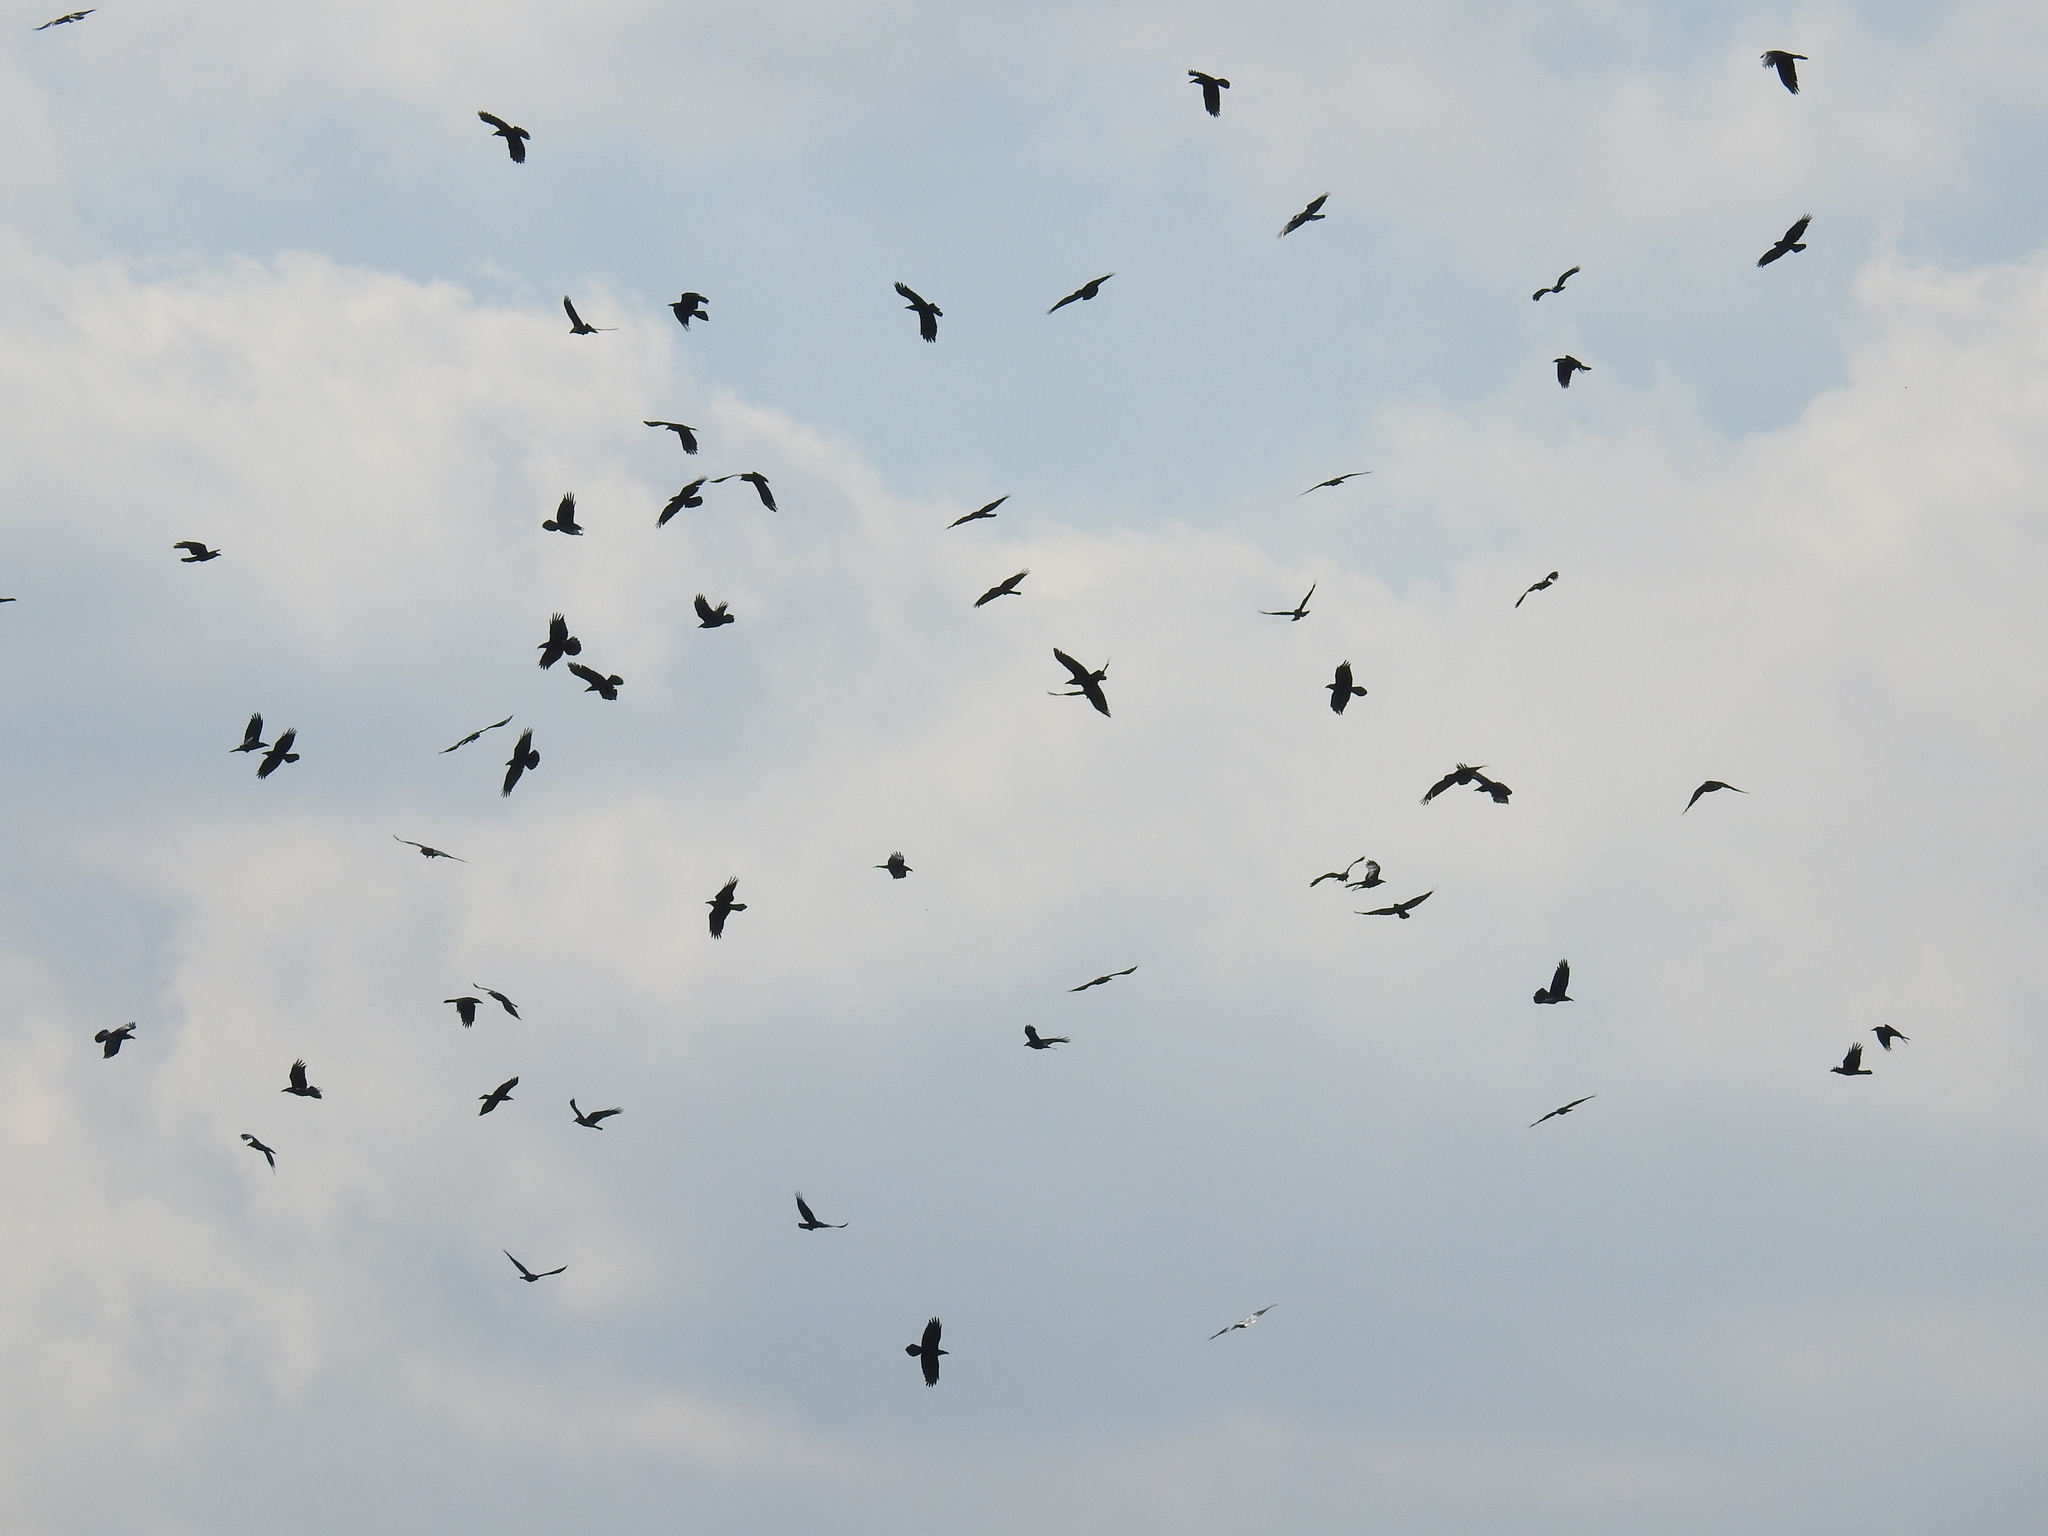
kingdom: Animalia
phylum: Chordata
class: Aves
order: Passeriformes
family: Corvidae
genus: Corvus
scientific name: Corvus corax
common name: Common raven
